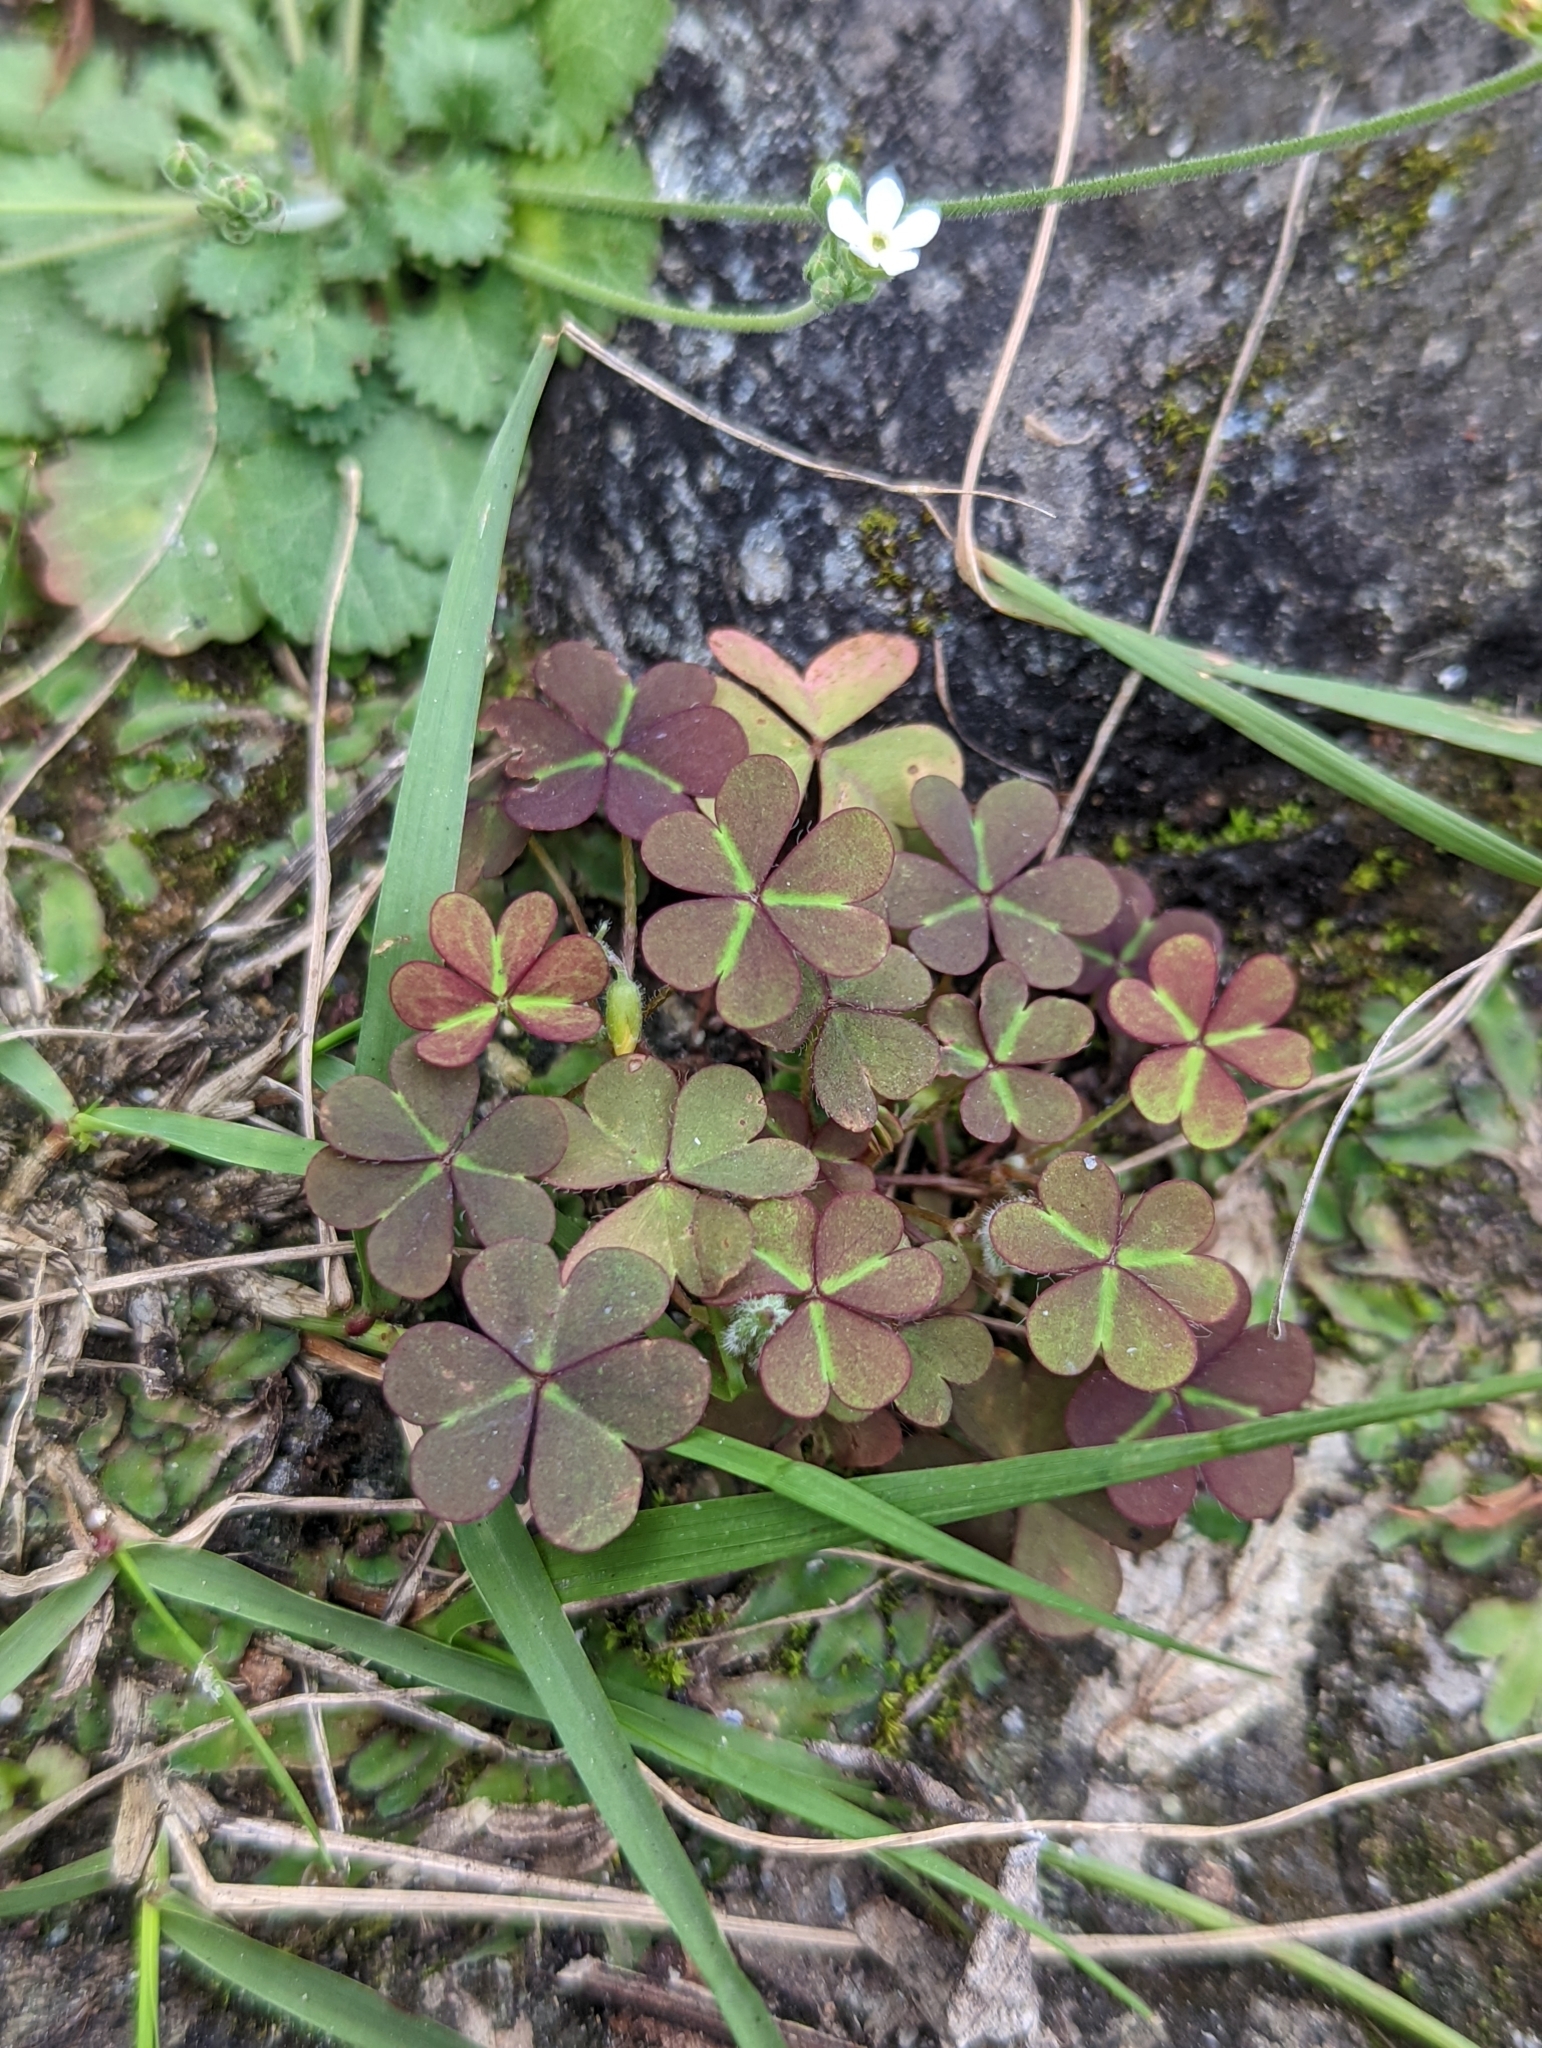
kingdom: Plantae
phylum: Tracheophyta
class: Magnoliopsida
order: Oxalidales
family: Oxalidaceae
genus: Oxalis
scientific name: Oxalis corniculata
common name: Procumbent yellow-sorrel
